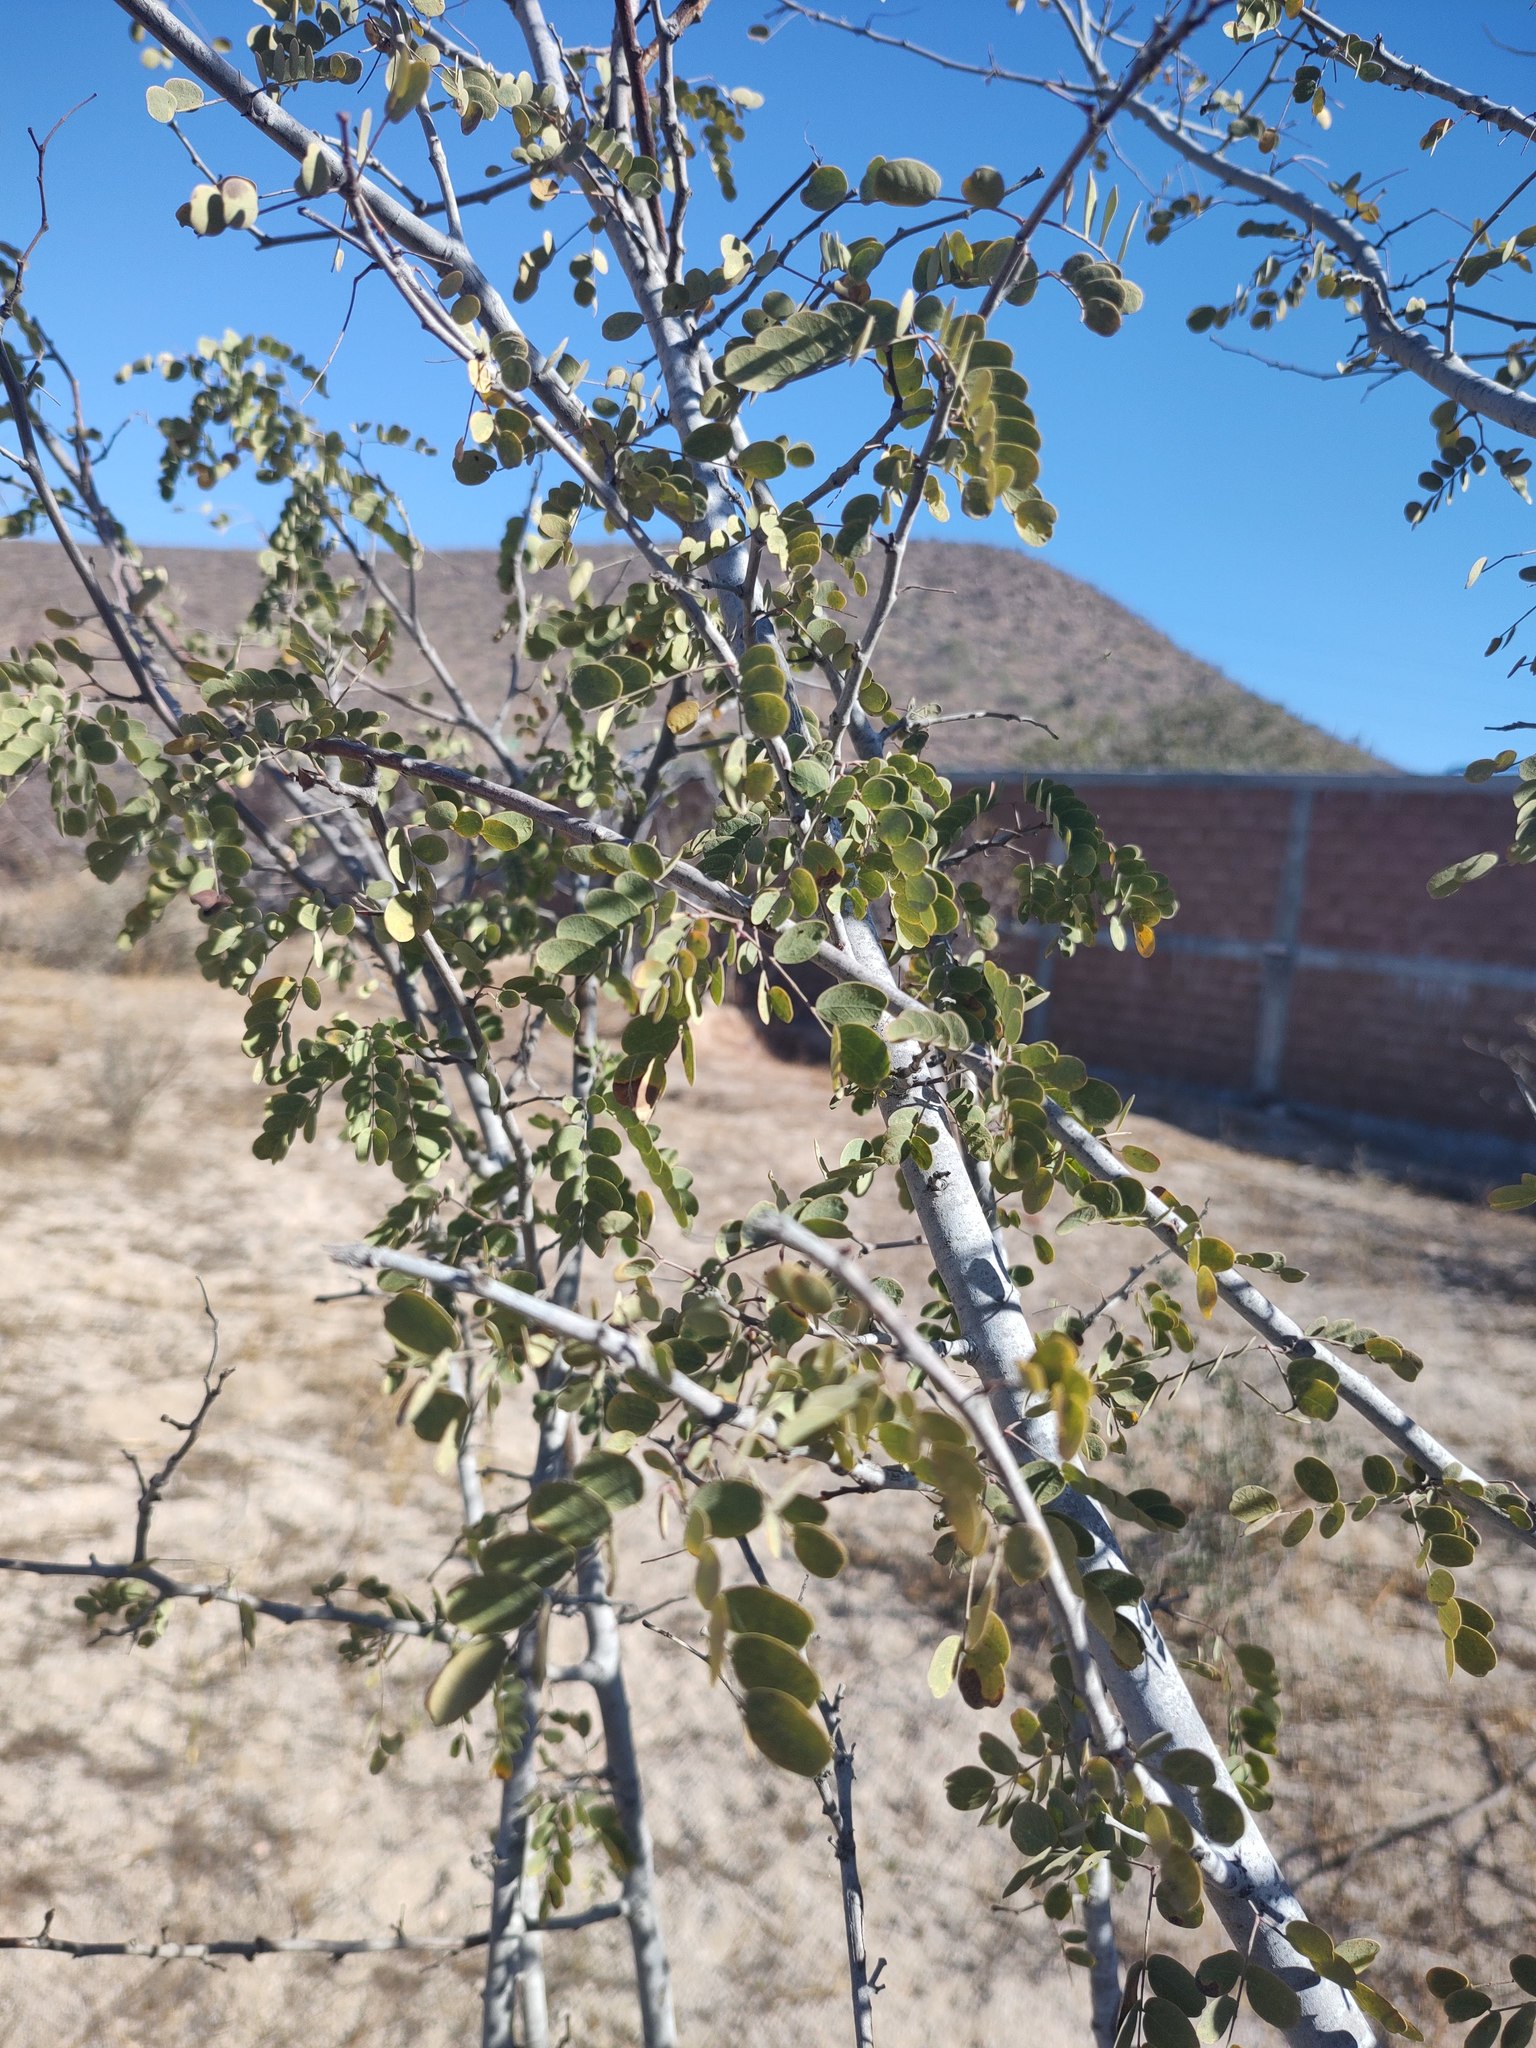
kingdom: Plantae
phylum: Tracheophyta
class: Magnoliopsida
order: Fabales
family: Fabaceae
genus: Lysiloma
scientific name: Lysiloma candidum
